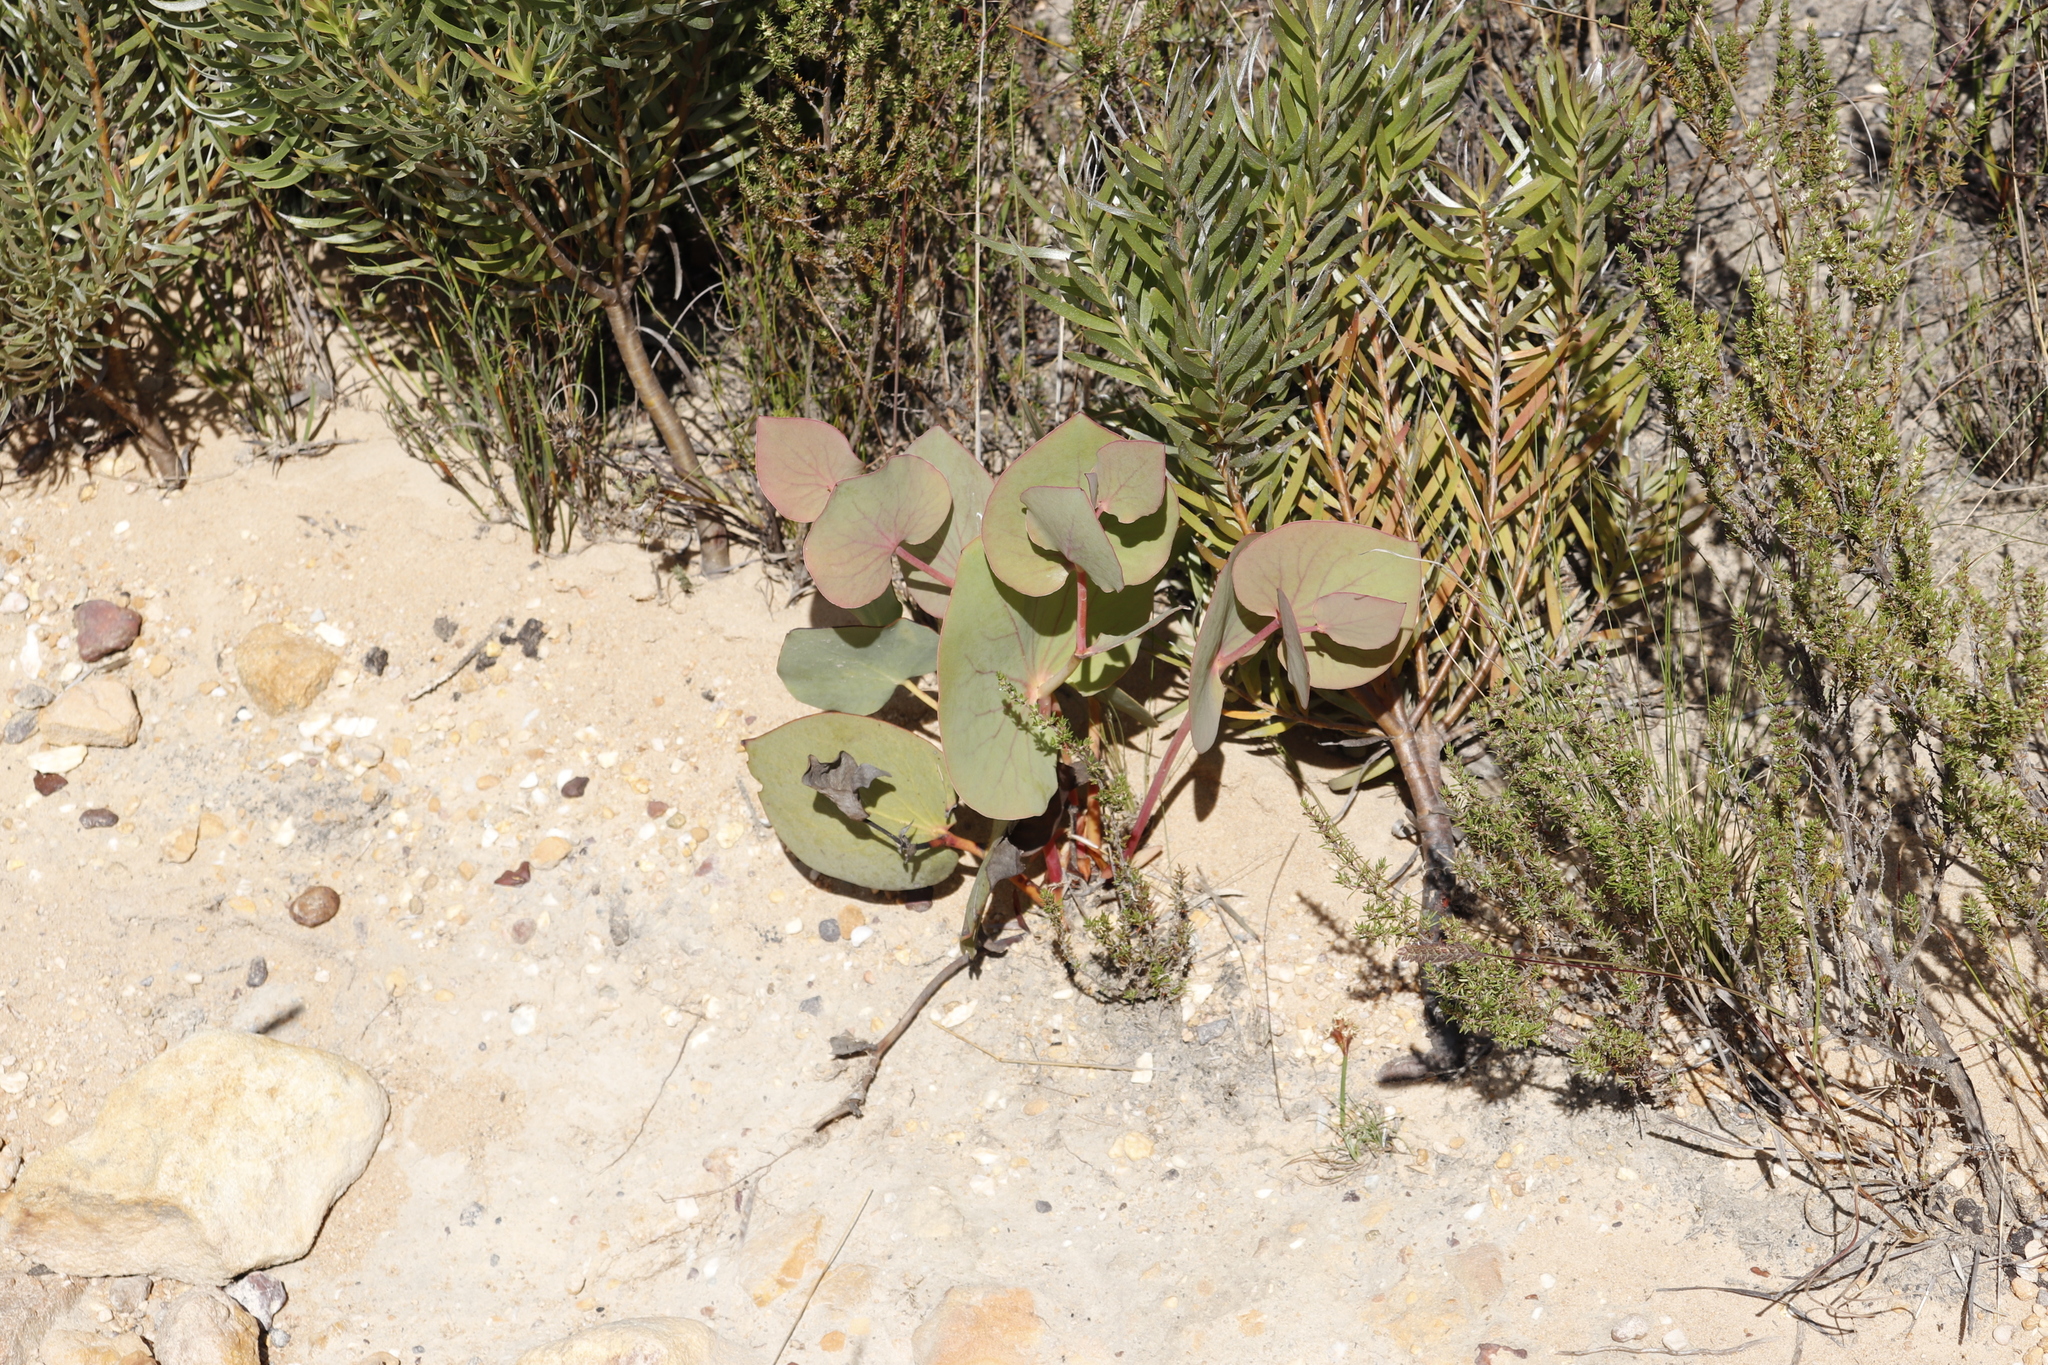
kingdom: Plantae
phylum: Tracheophyta
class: Magnoliopsida
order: Proteales
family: Proteaceae
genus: Protea
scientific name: Protea cordata
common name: Heart-leaf sugarbush
